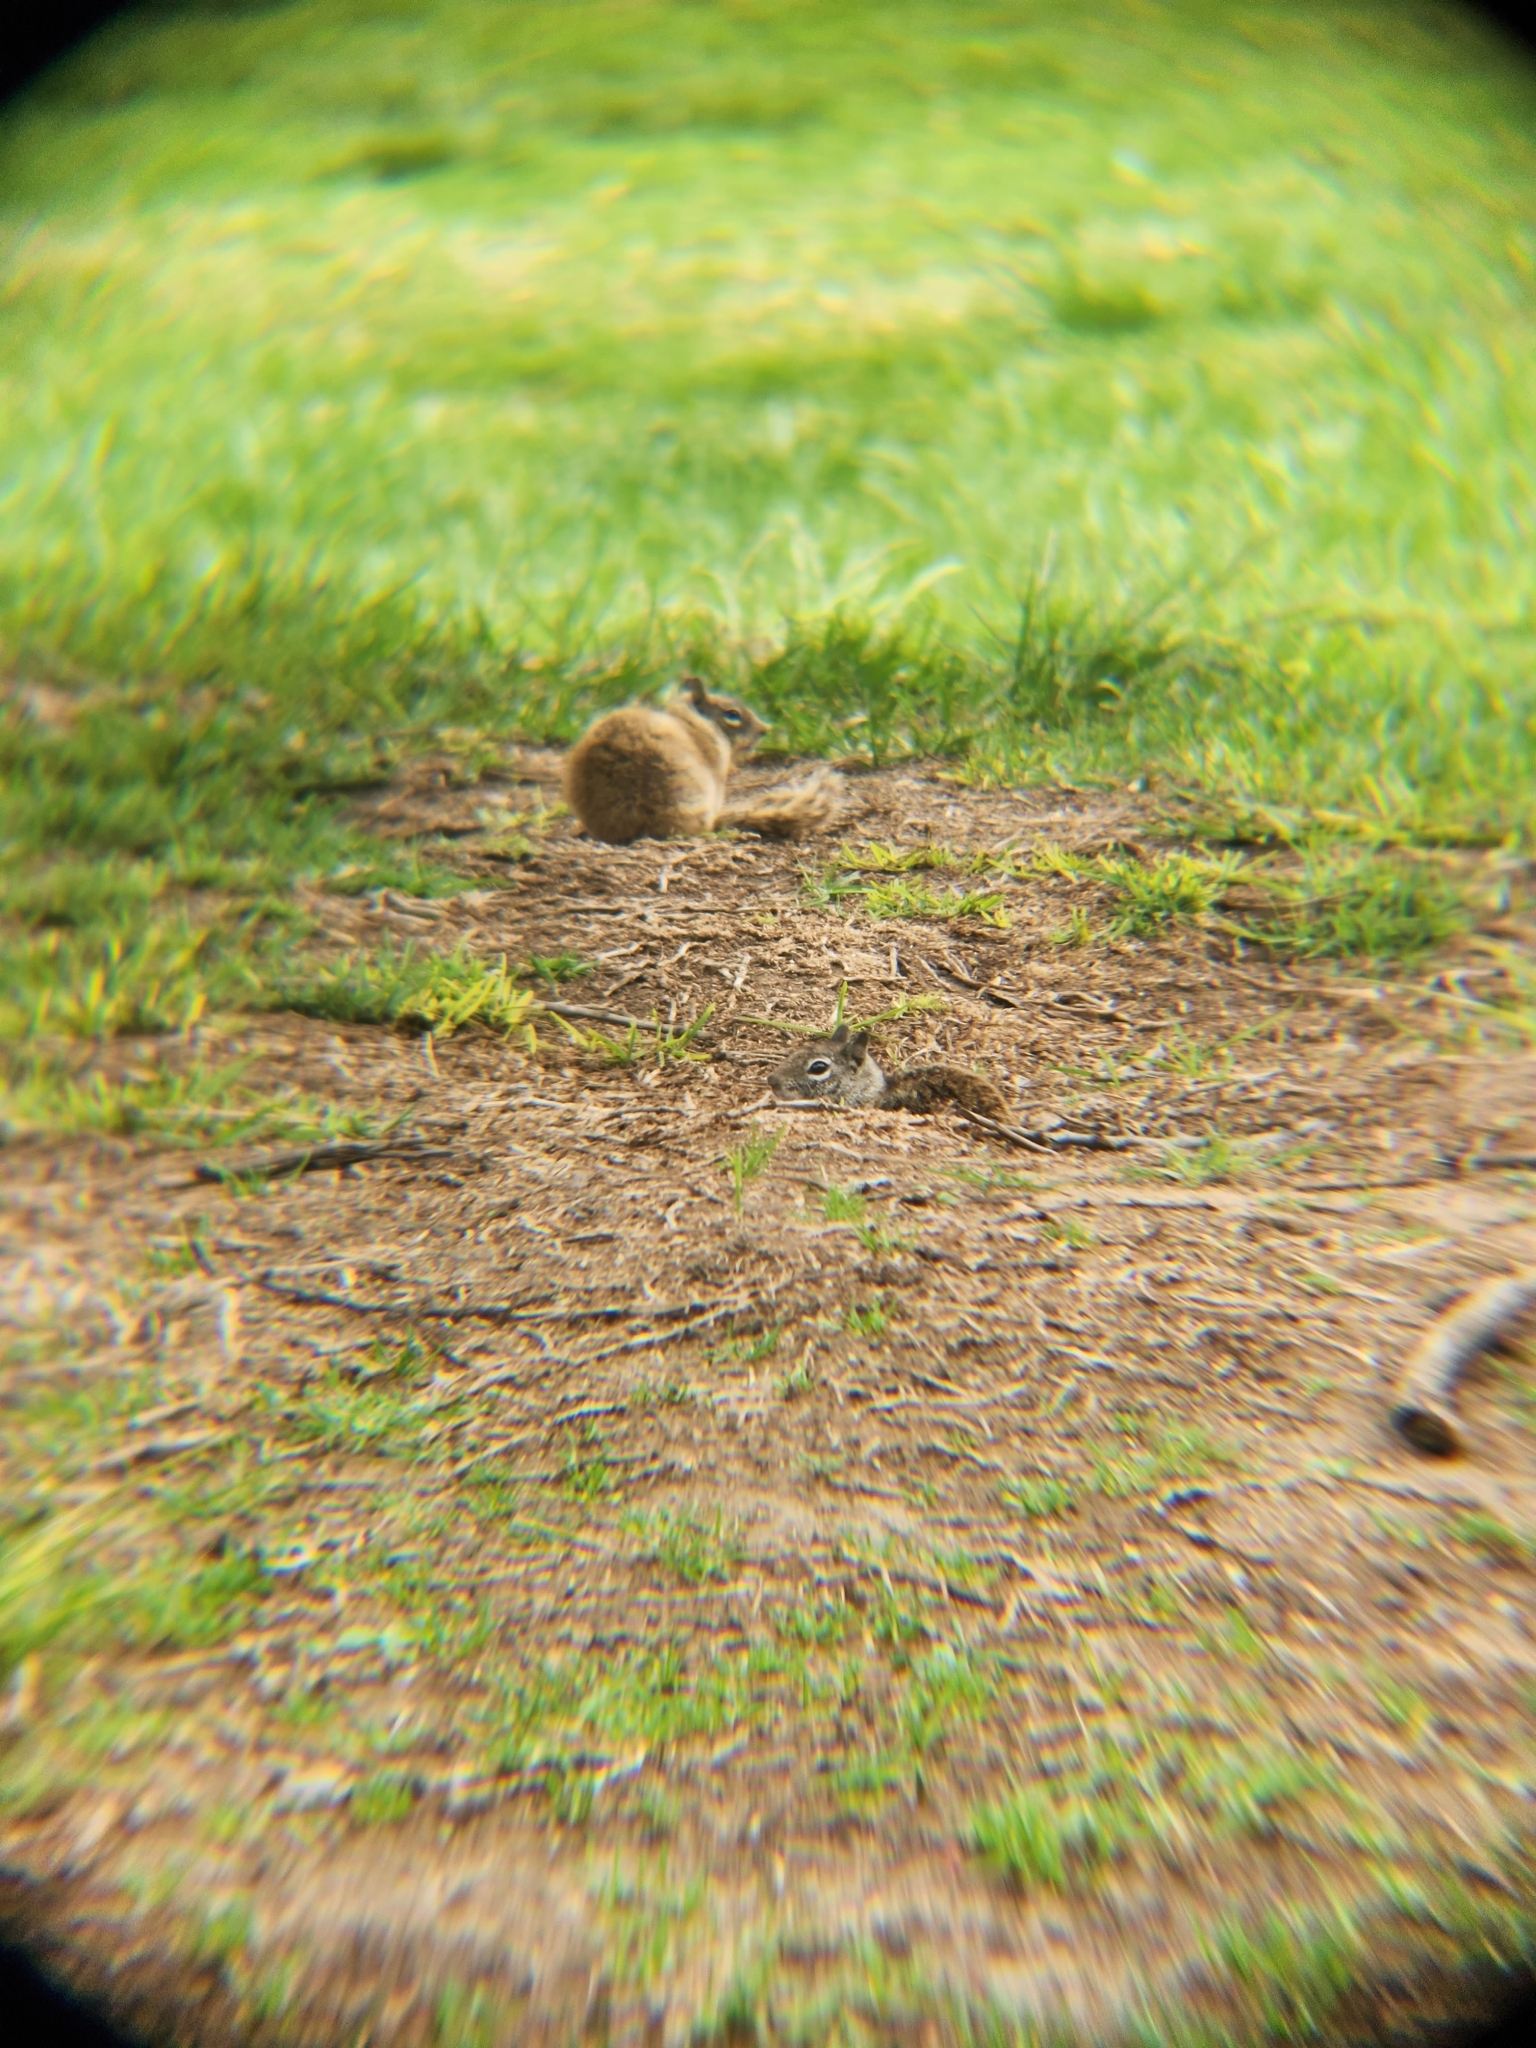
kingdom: Animalia
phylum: Chordata
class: Mammalia
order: Rodentia
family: Sciuridae
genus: Otospermophilus
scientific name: Otospermophilus beecheyi
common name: California ground squirrel
